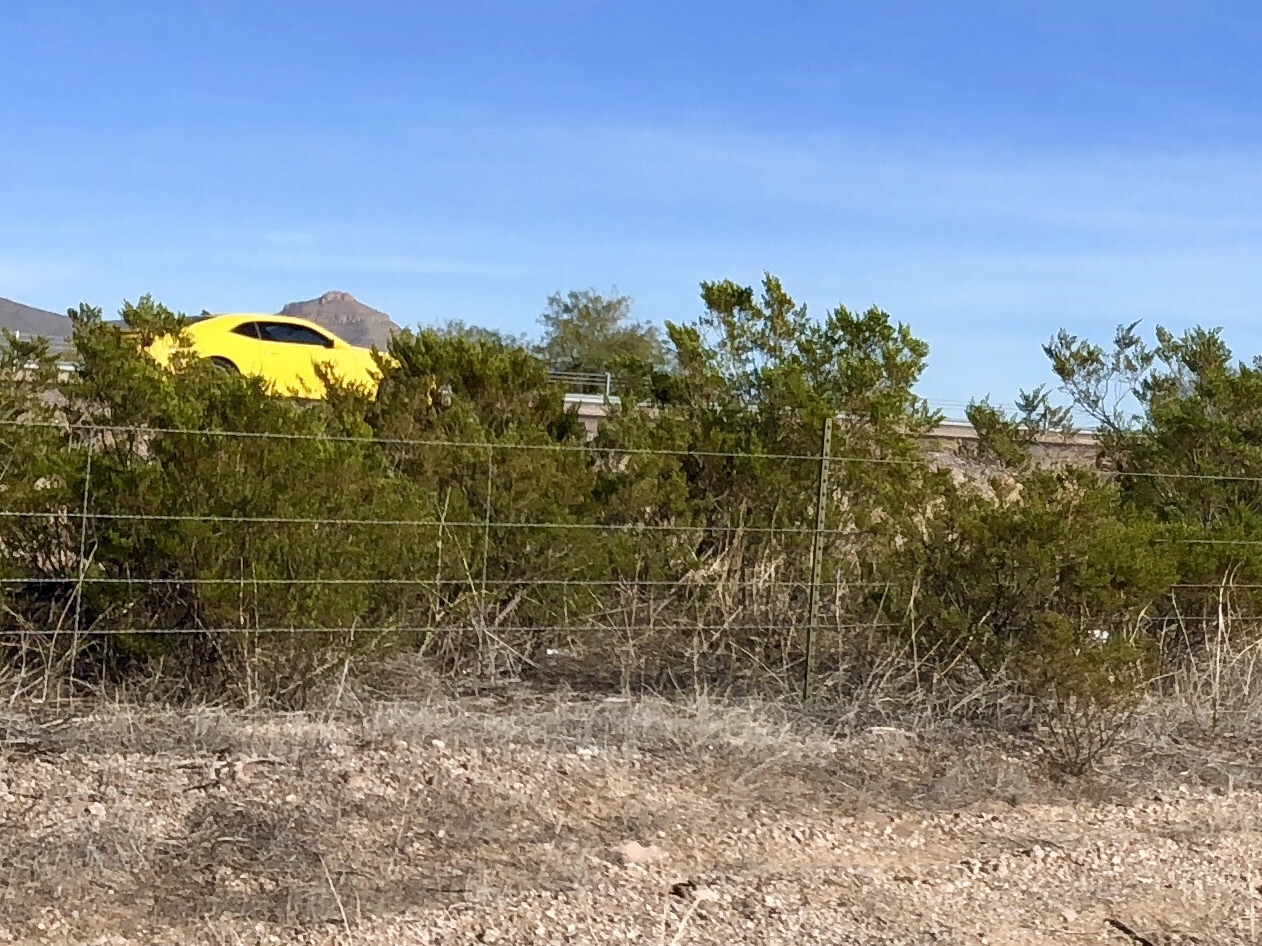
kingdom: Plantae
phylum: Tracheophyta
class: Magnoliopsida
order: Zygophyllales
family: Zygophyllaceae
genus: Larrea
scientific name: Larrea tridentata
